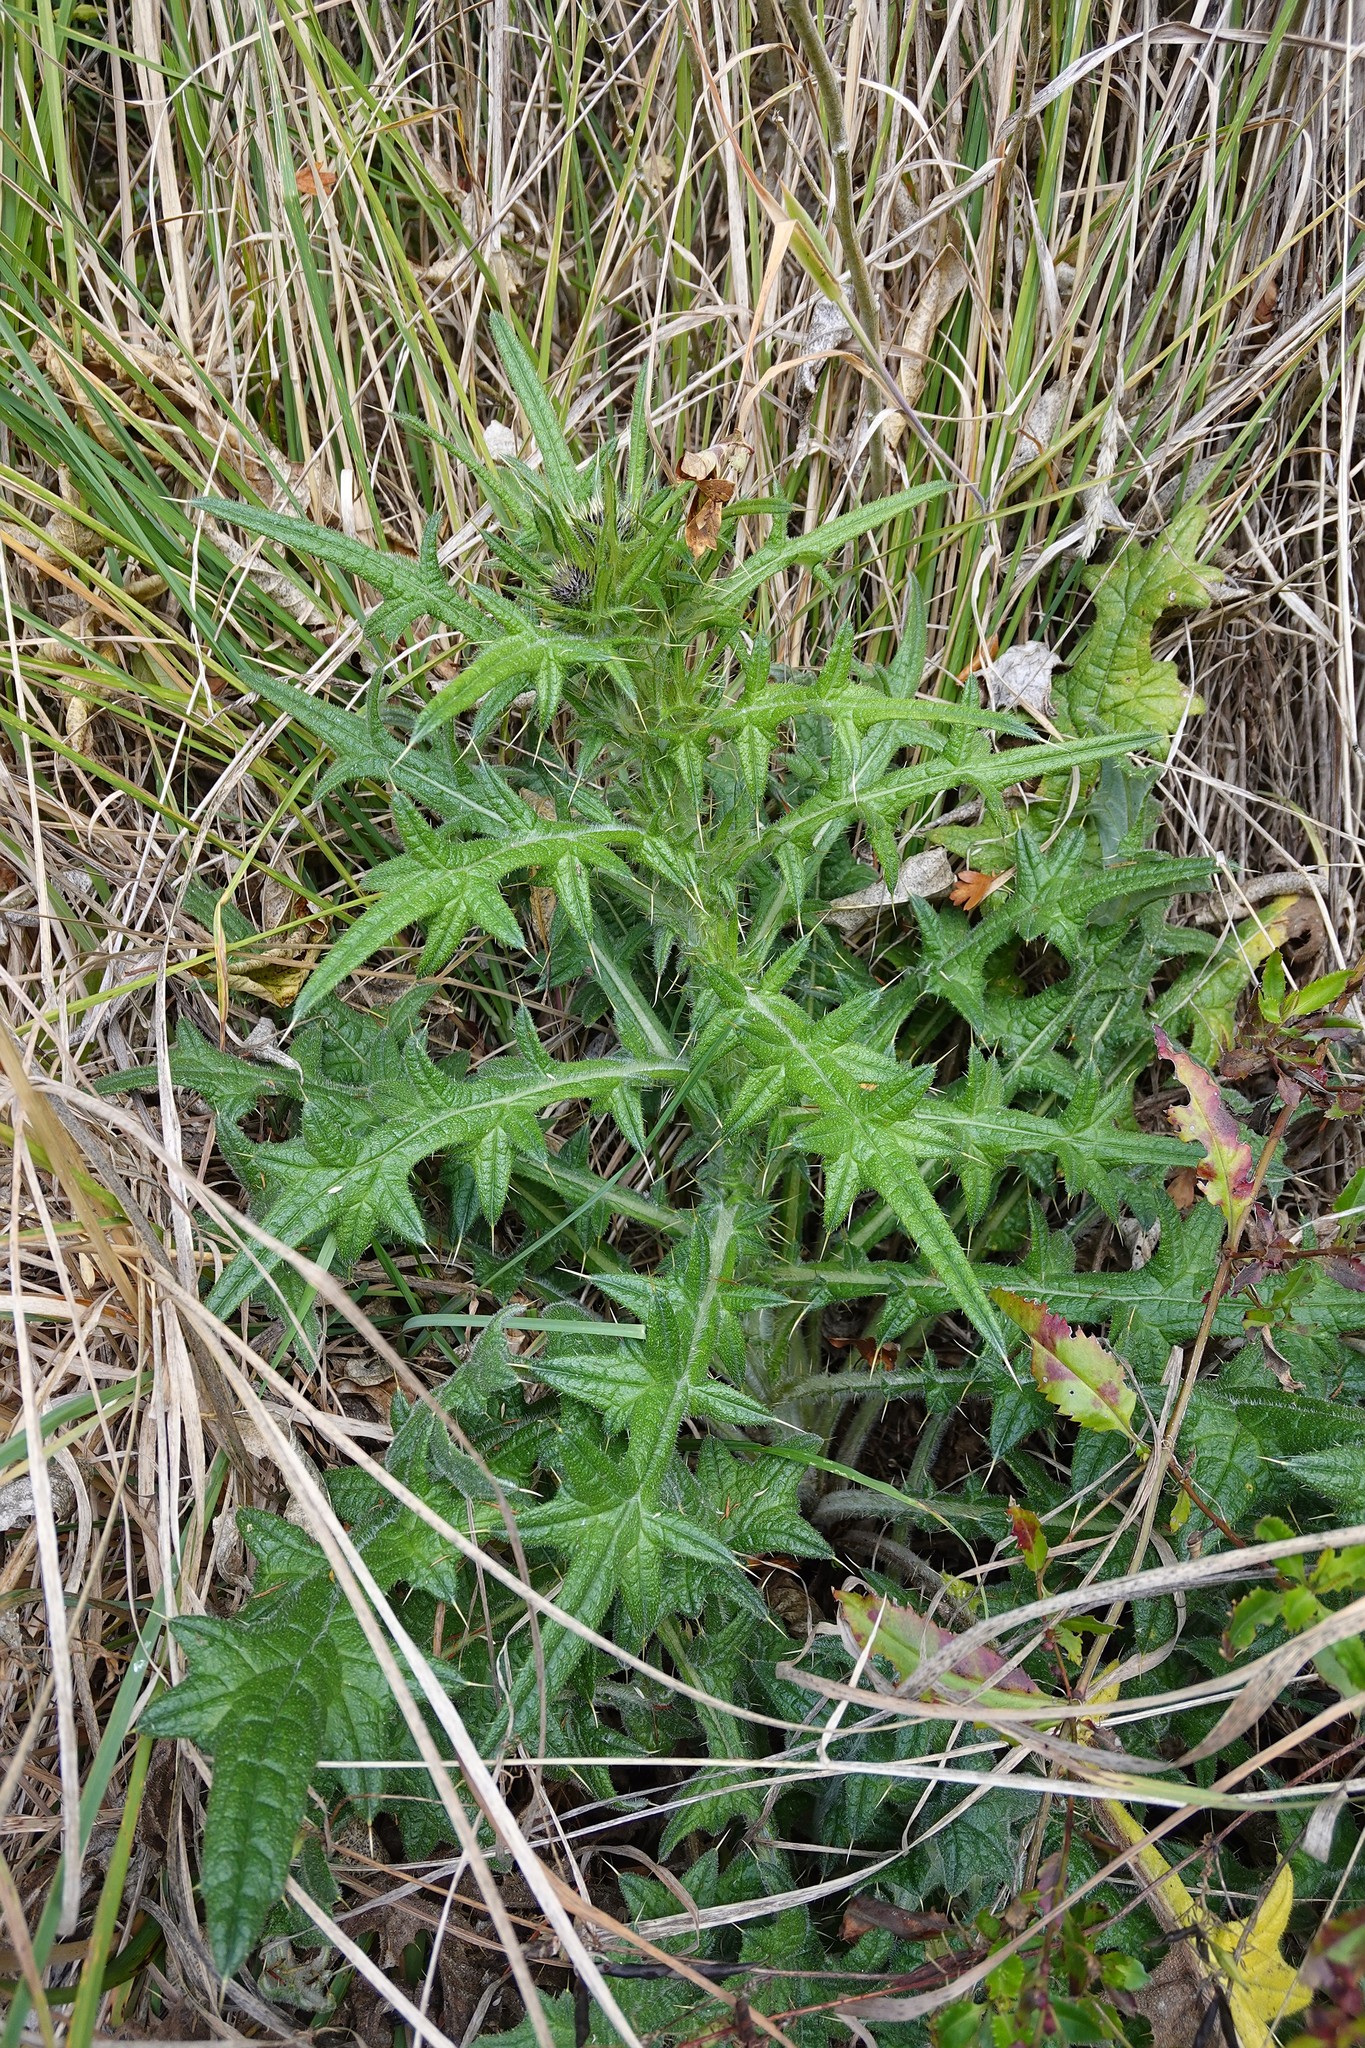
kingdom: Plantae
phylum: Tracheophyta
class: Magnoliopsida
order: Asterales
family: Asteraceae
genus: Cirsium
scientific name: Cirsium vulgare
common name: Bull thistle
